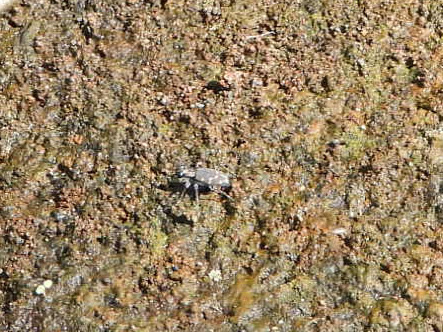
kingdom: Animalia
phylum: Arthropoda
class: Insecta
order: Coleoptera
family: Carabidae
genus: Cicindela
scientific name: Cicindela oregona
